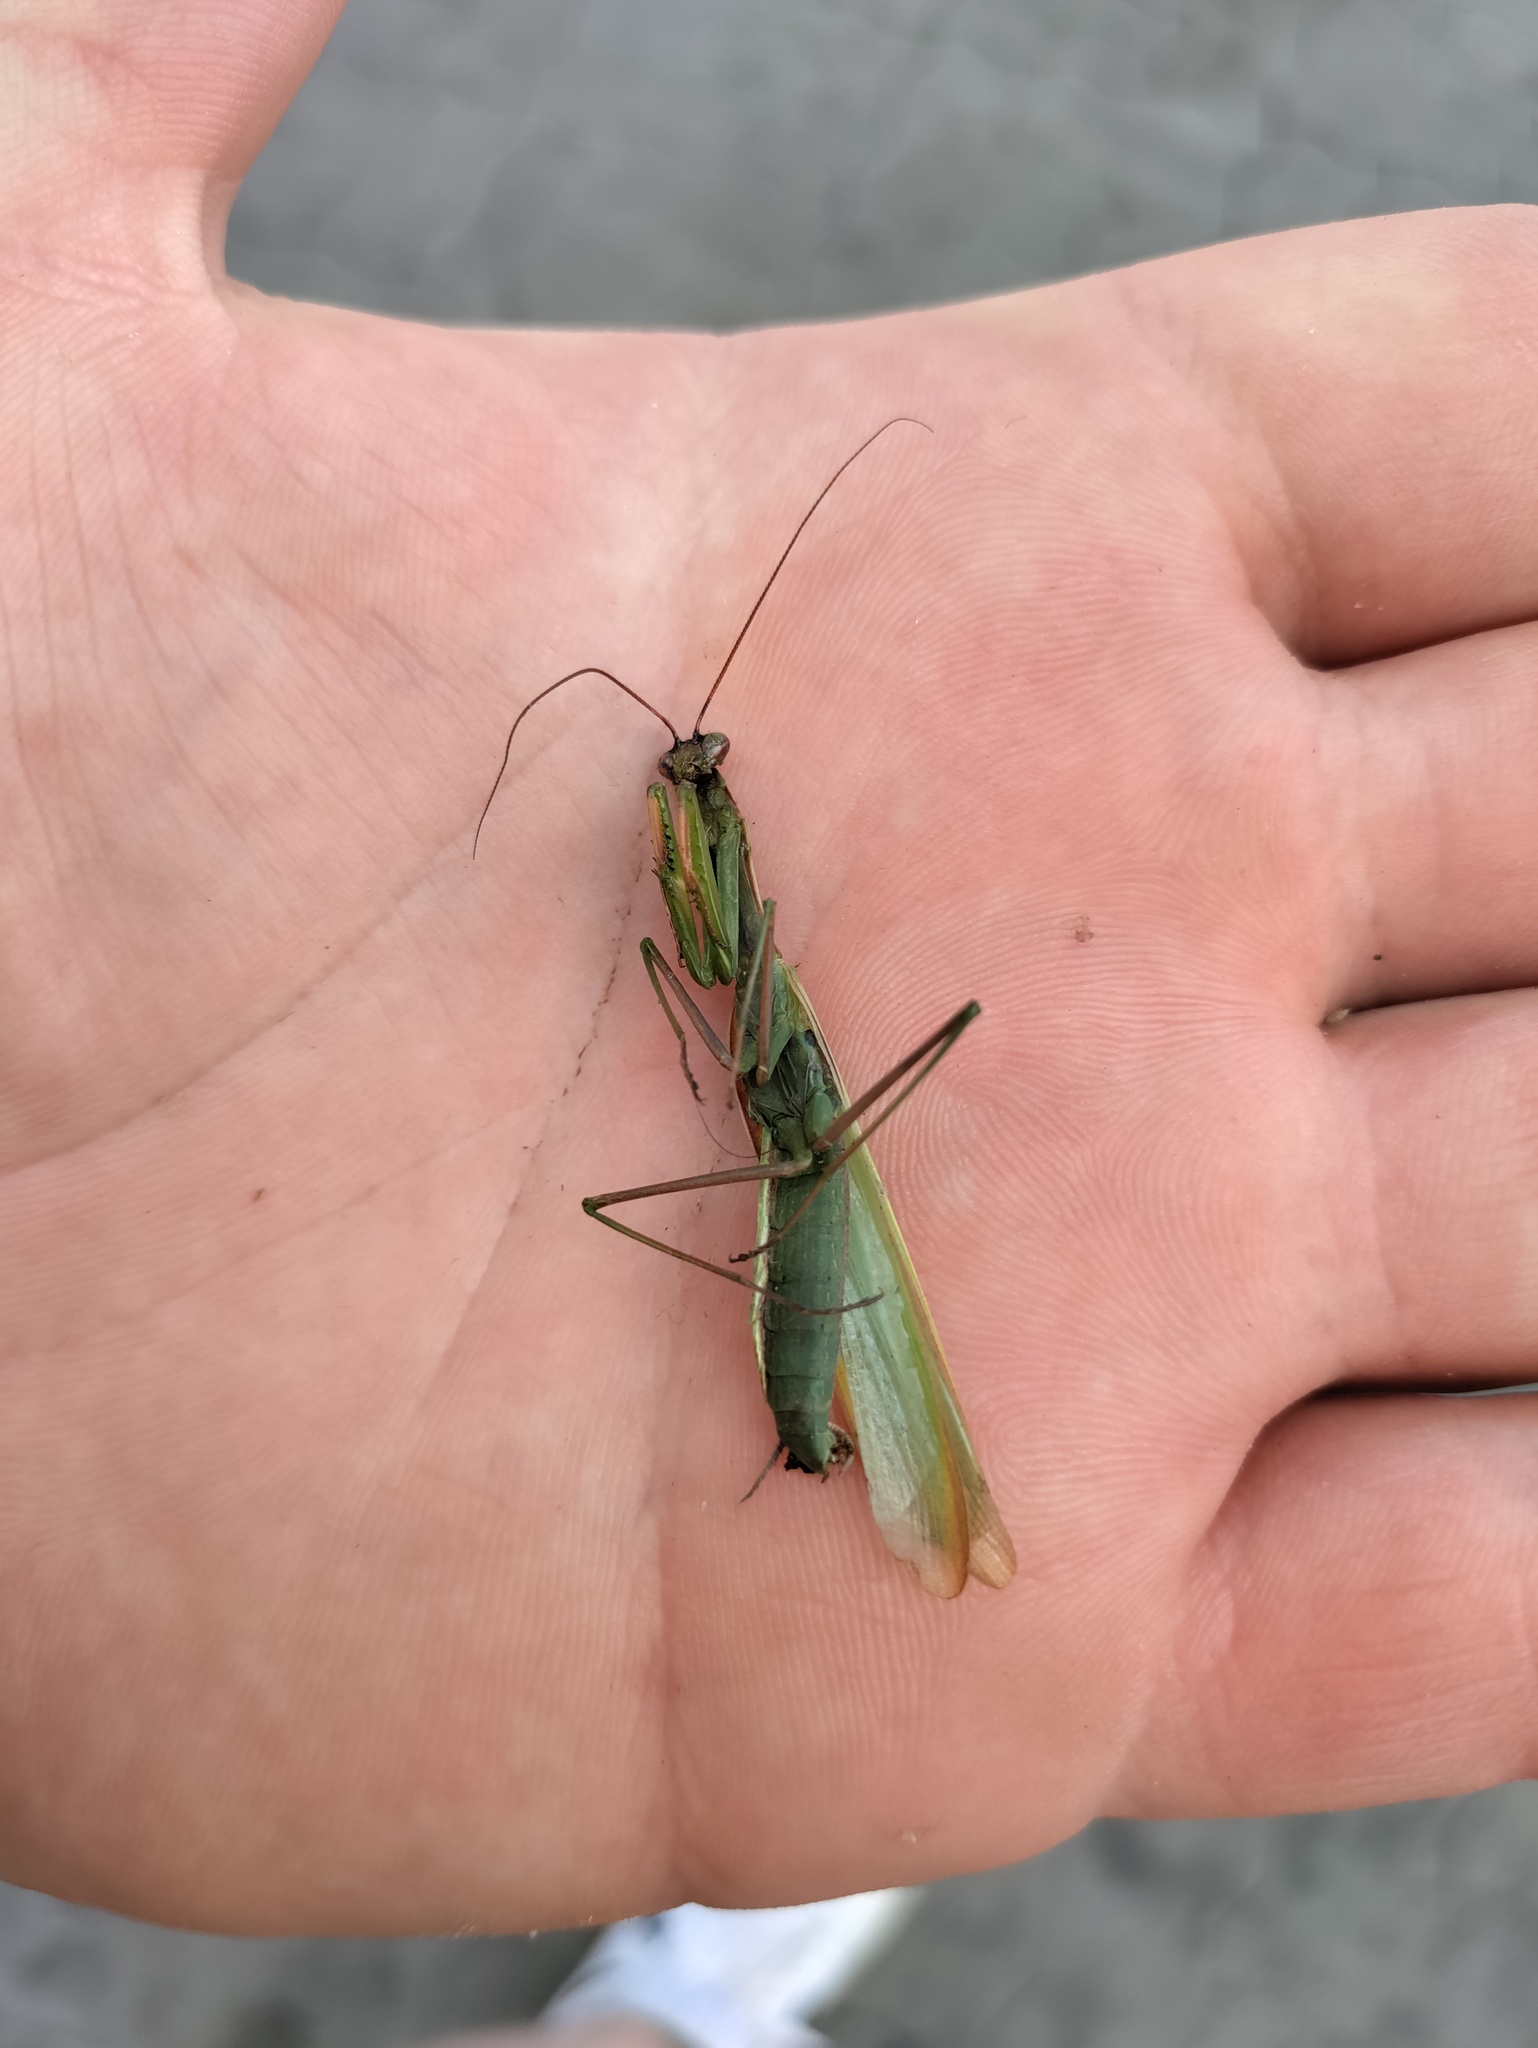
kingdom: Animalia
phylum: Arthropoda
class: Insecta
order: Mantodea
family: Mantidae
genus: Mantis
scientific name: Mantis religiosa
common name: Praying mantis
